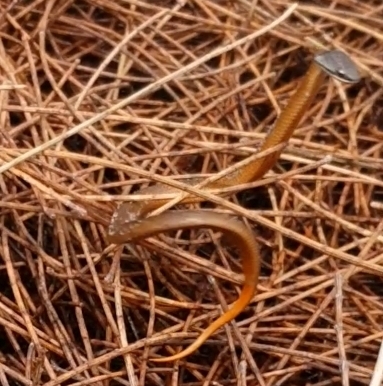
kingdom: Animalia
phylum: Chordata
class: Squamata
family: Elapidae
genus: Elapognathus
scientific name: Elapognathus coronatus
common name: Crowned snake
